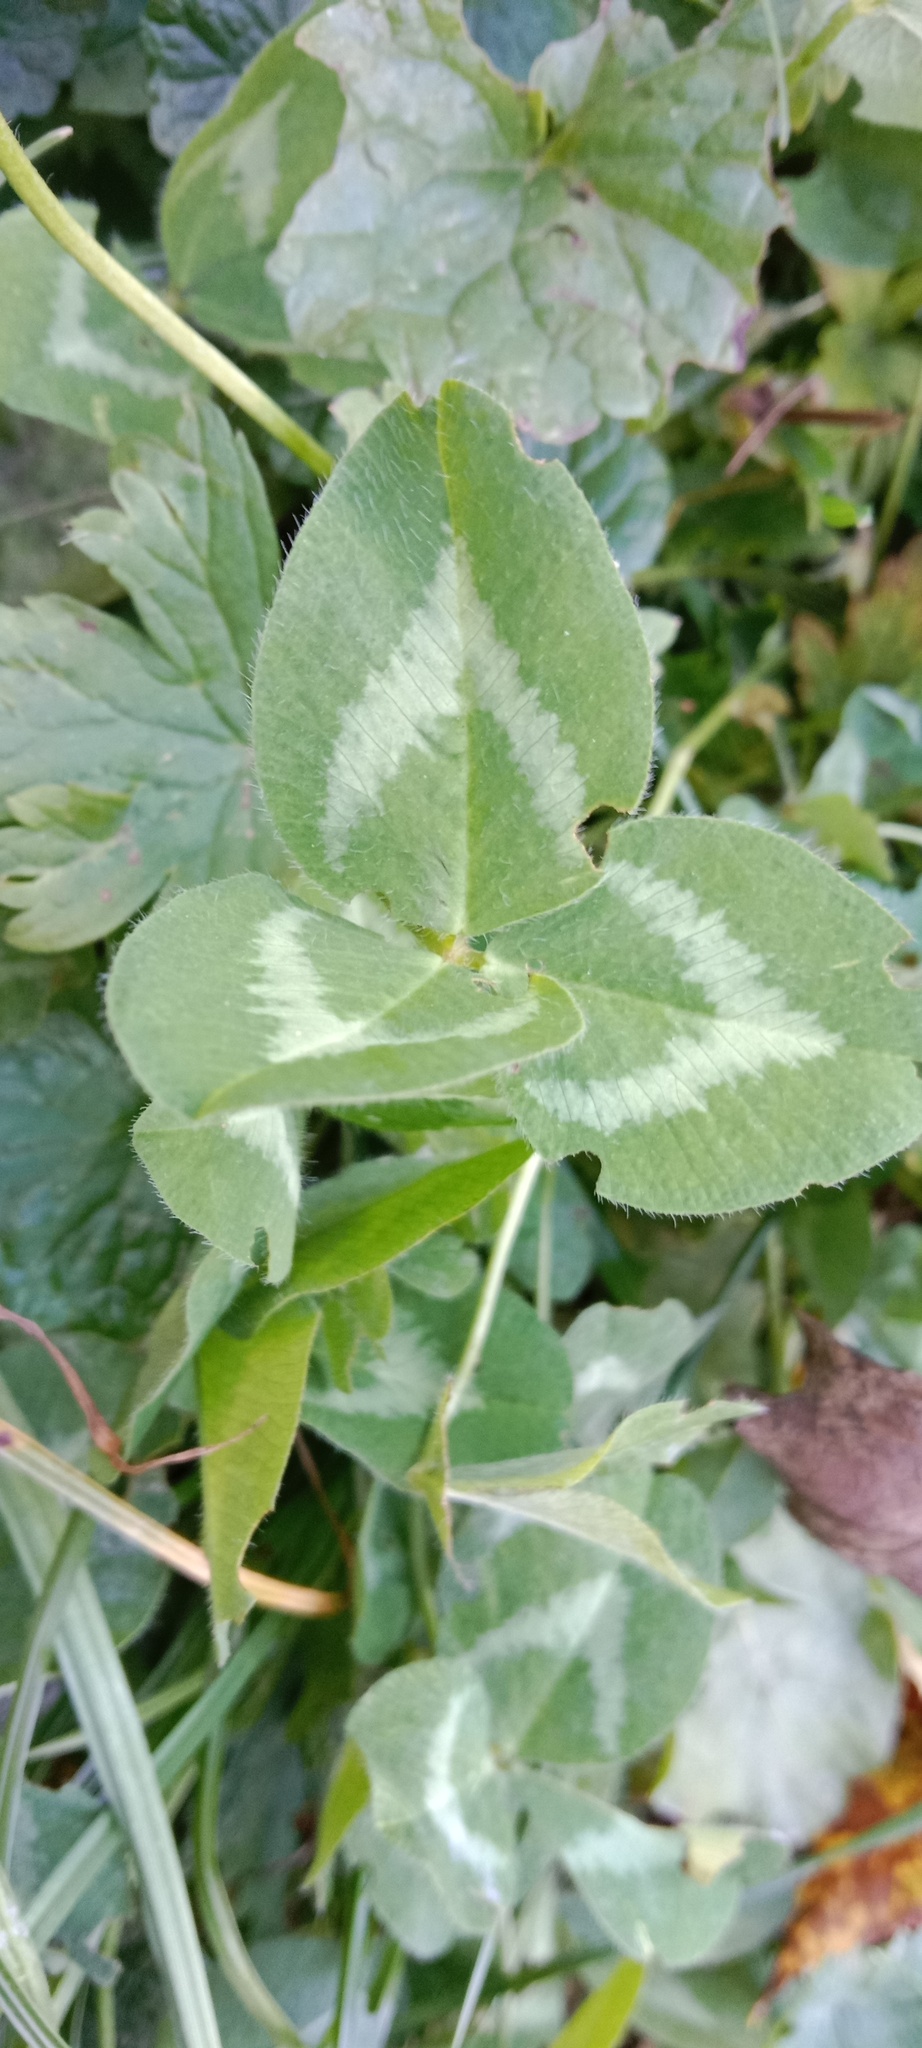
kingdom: Plantae
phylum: Tracheophyta
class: Magnoliopsida
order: Fabales
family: Fabaceae
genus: Trifolium
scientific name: Trifolium pratense
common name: Red clover
